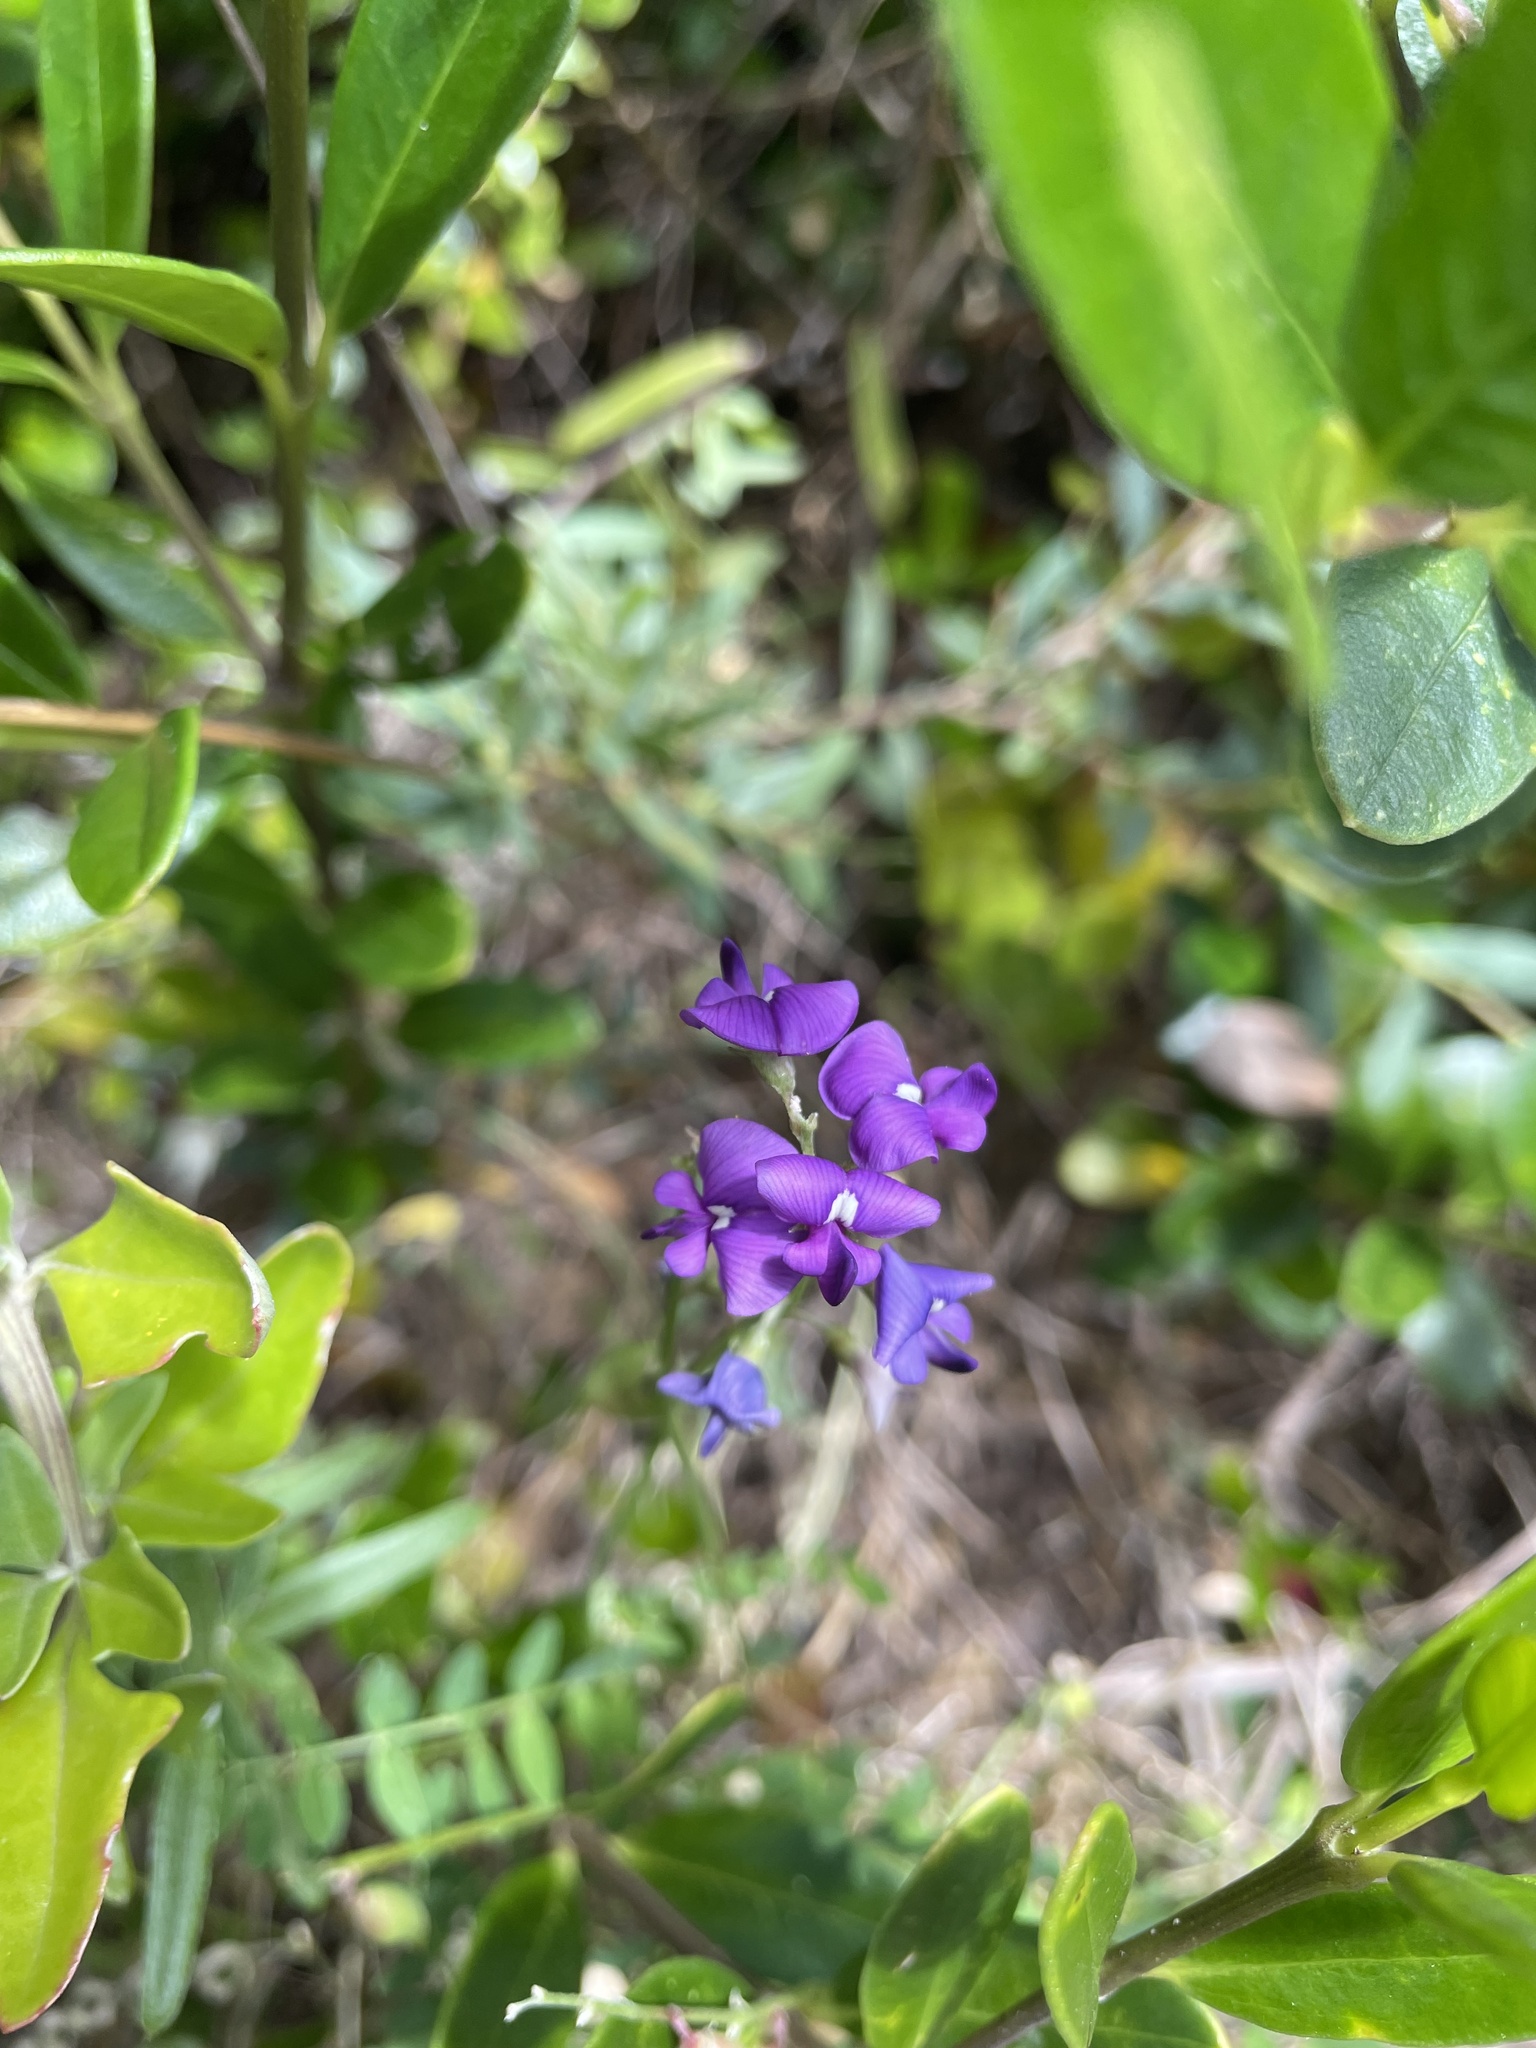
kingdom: Plantae
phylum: Tracheophyta
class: Magnoliopsida
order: Fabales
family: Fabaceae
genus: Swainsona
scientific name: Swainsona lessertiifolia
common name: Bog-pea
